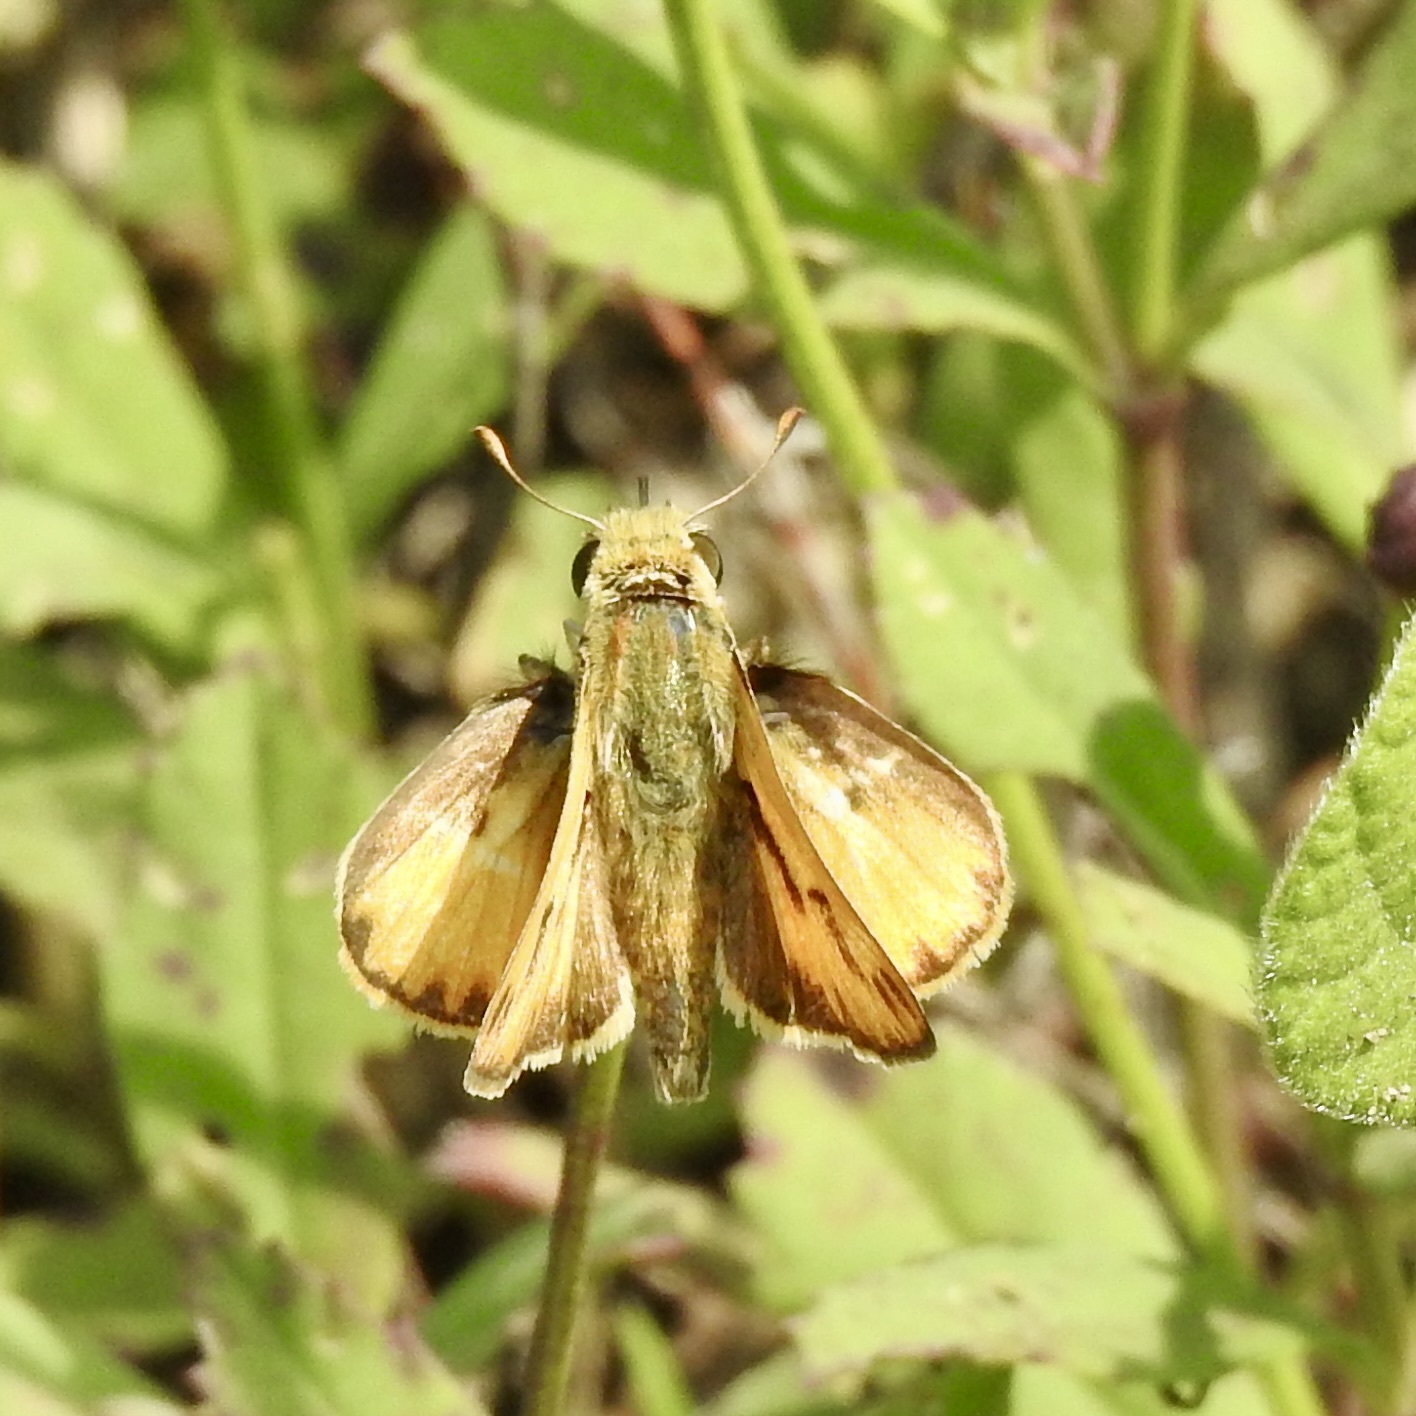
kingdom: Animalia
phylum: Arthropoda
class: Insecta
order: Lepidoptera
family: Hesperiidae
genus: Hylephila
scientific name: Hylephila phyleus
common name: Fiery skipper
